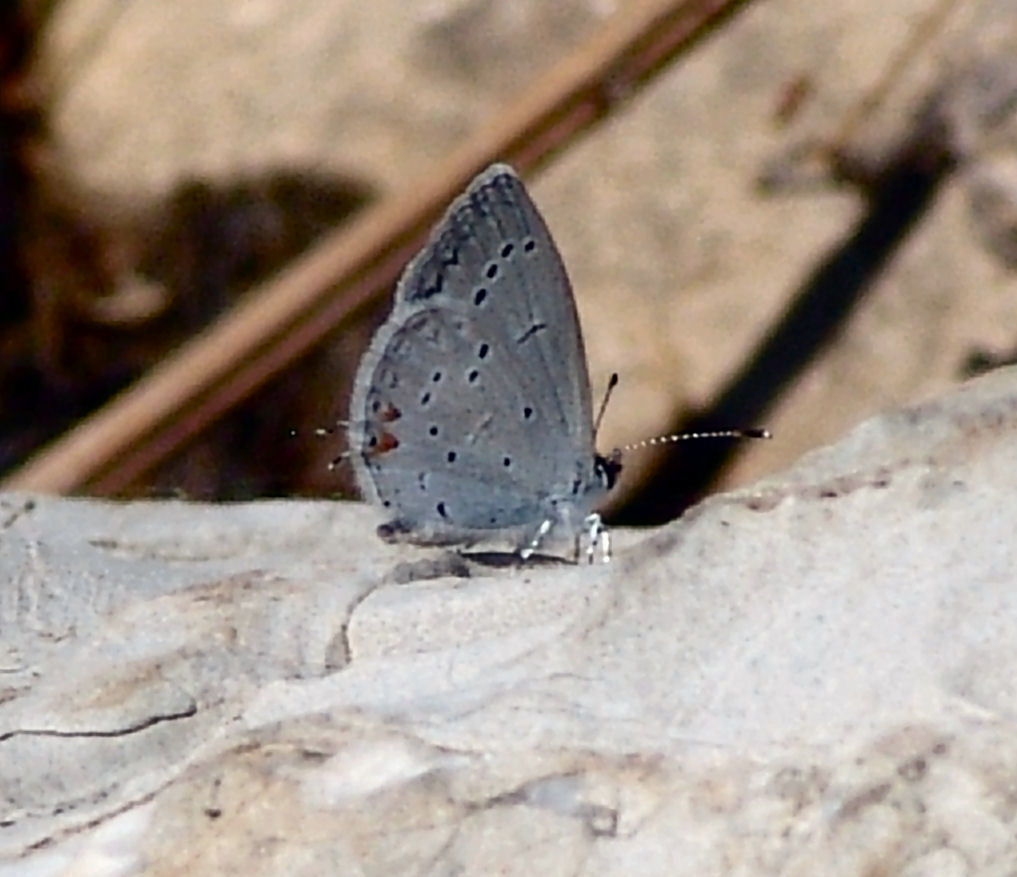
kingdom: Animalia
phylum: Arthropoda
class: Insecta
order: Lepidoptera
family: Lycaenidae
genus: Elkalyce
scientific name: Elkalyce comyntas
